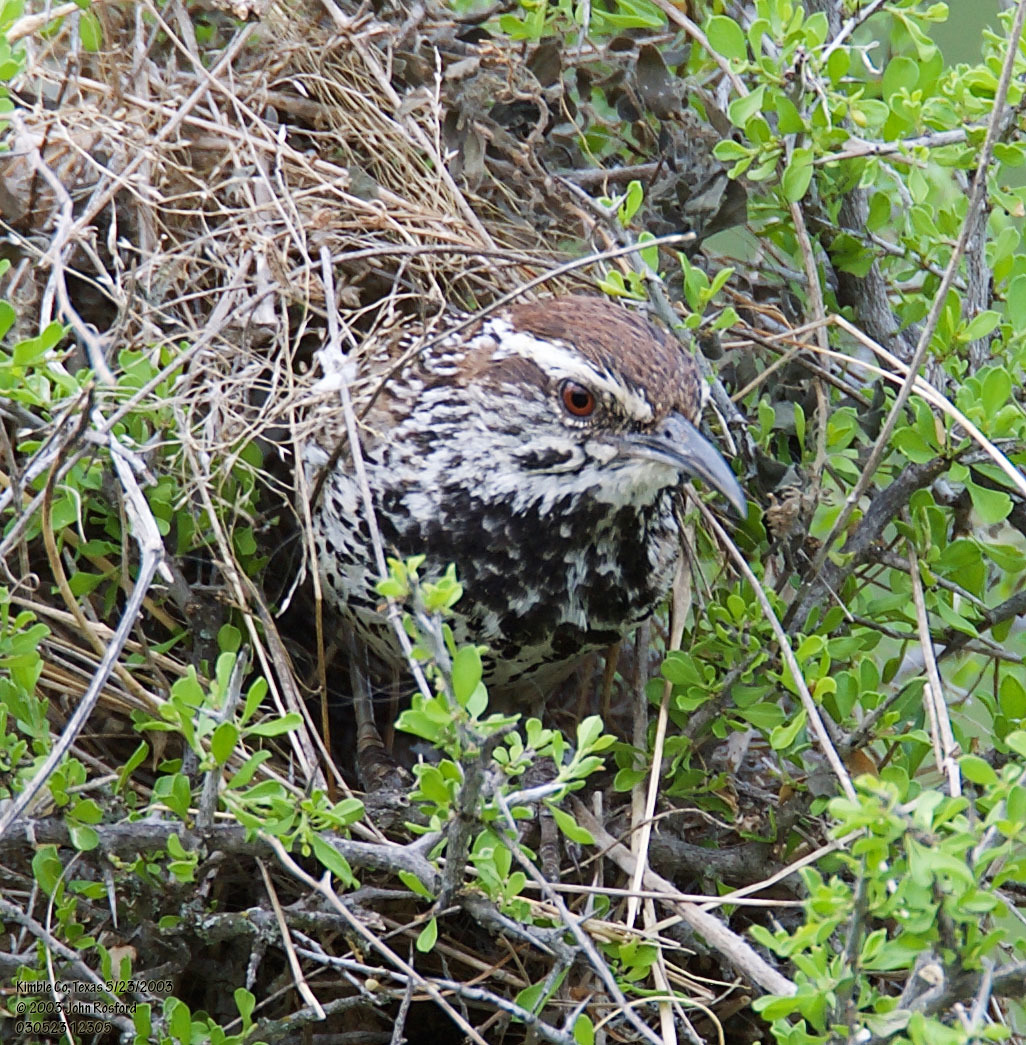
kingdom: Animalia
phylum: Chordata
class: Aves
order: Passeriformes
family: Troglodytidae
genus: Campylorhynchus
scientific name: Campylorhynchus brunneicapillus
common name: Cactus wren
